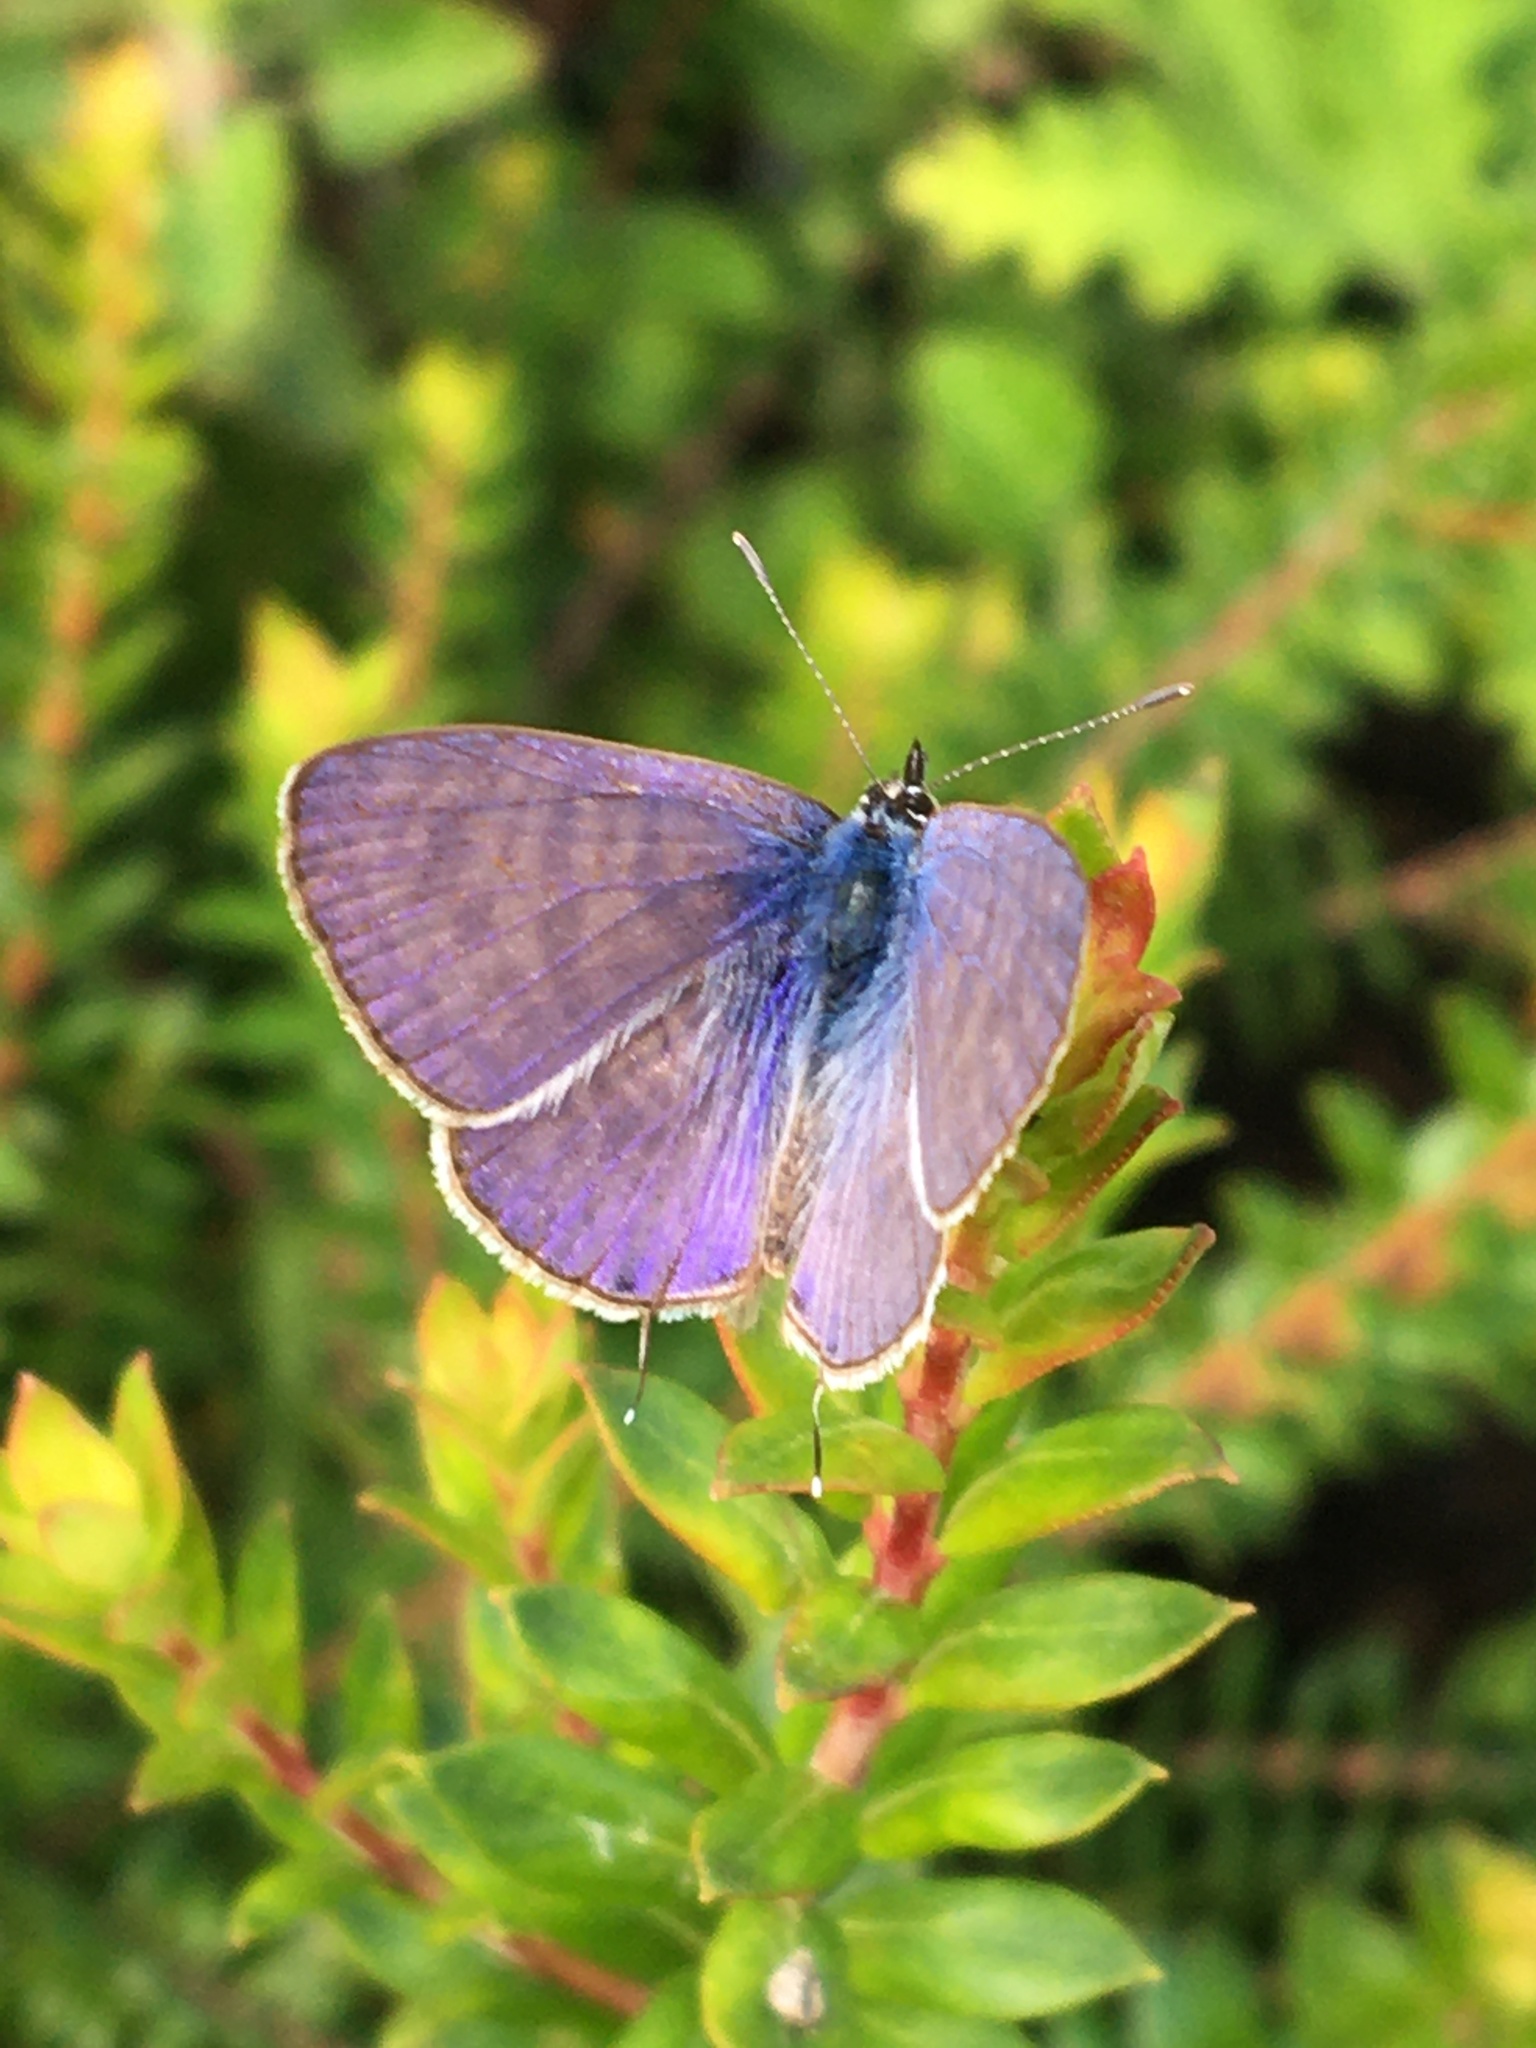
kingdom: Animalia
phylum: Arthropoda
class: Insecta
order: Lepidoptera
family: Lycaenidae
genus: Leptotes
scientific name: Leptotes
